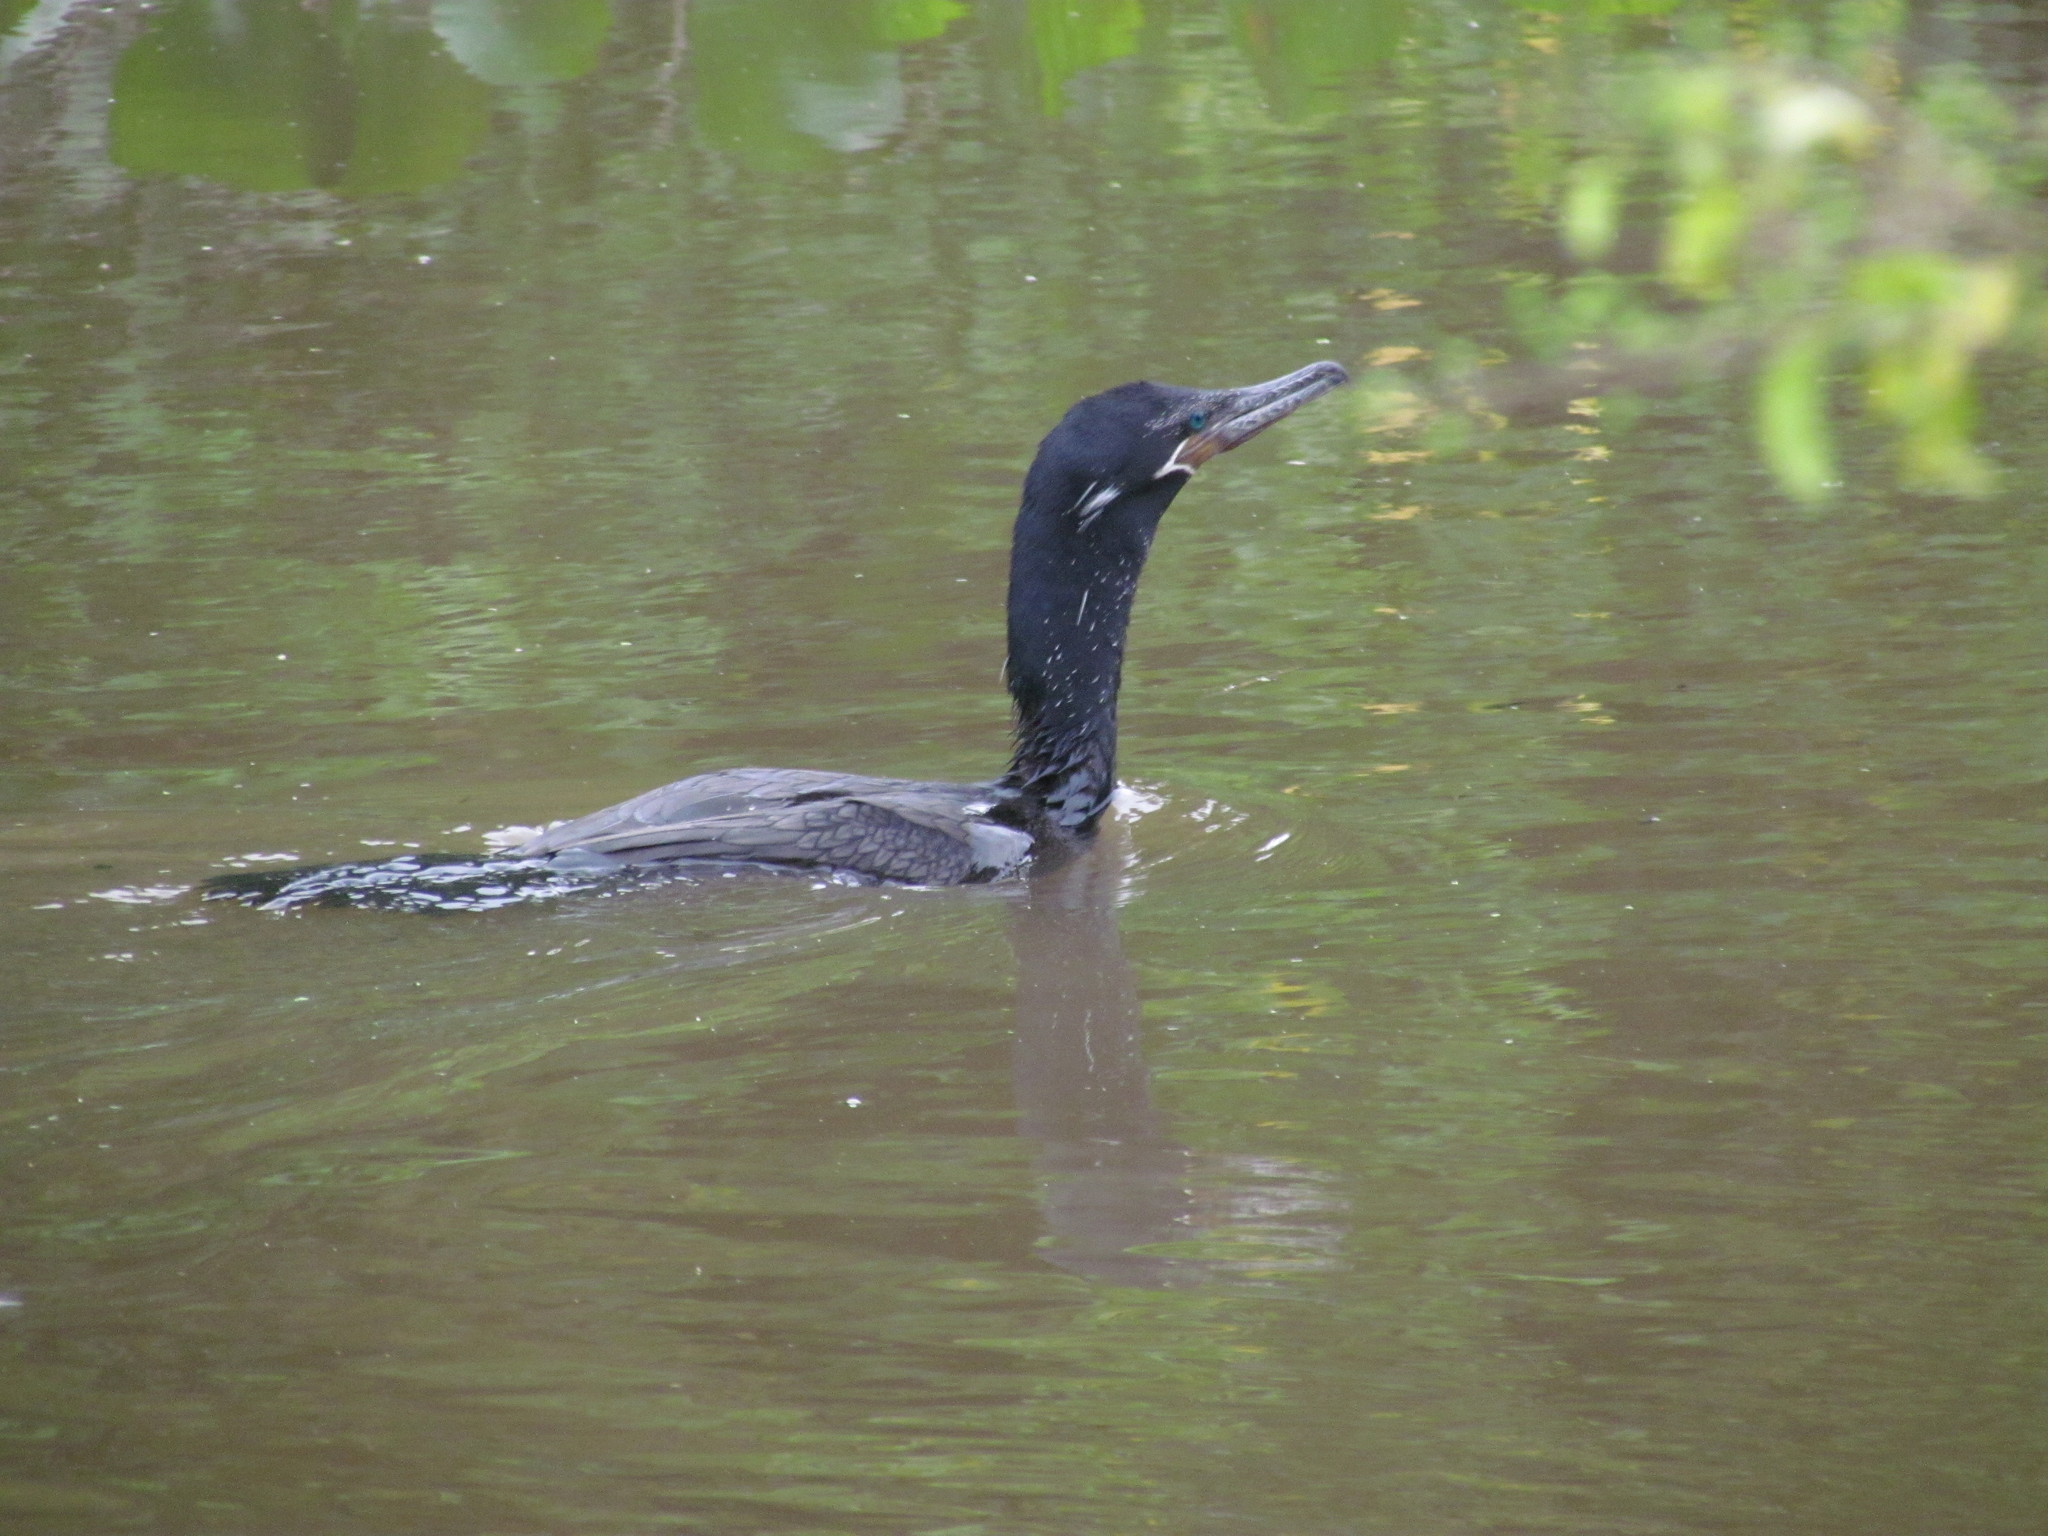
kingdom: Animalia
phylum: Chordata
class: Aves
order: Suliformes
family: Phalacrocoracidae
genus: Phalacrocorax
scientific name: Phalacrocorax brasilianus
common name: Neotropic cormorant
